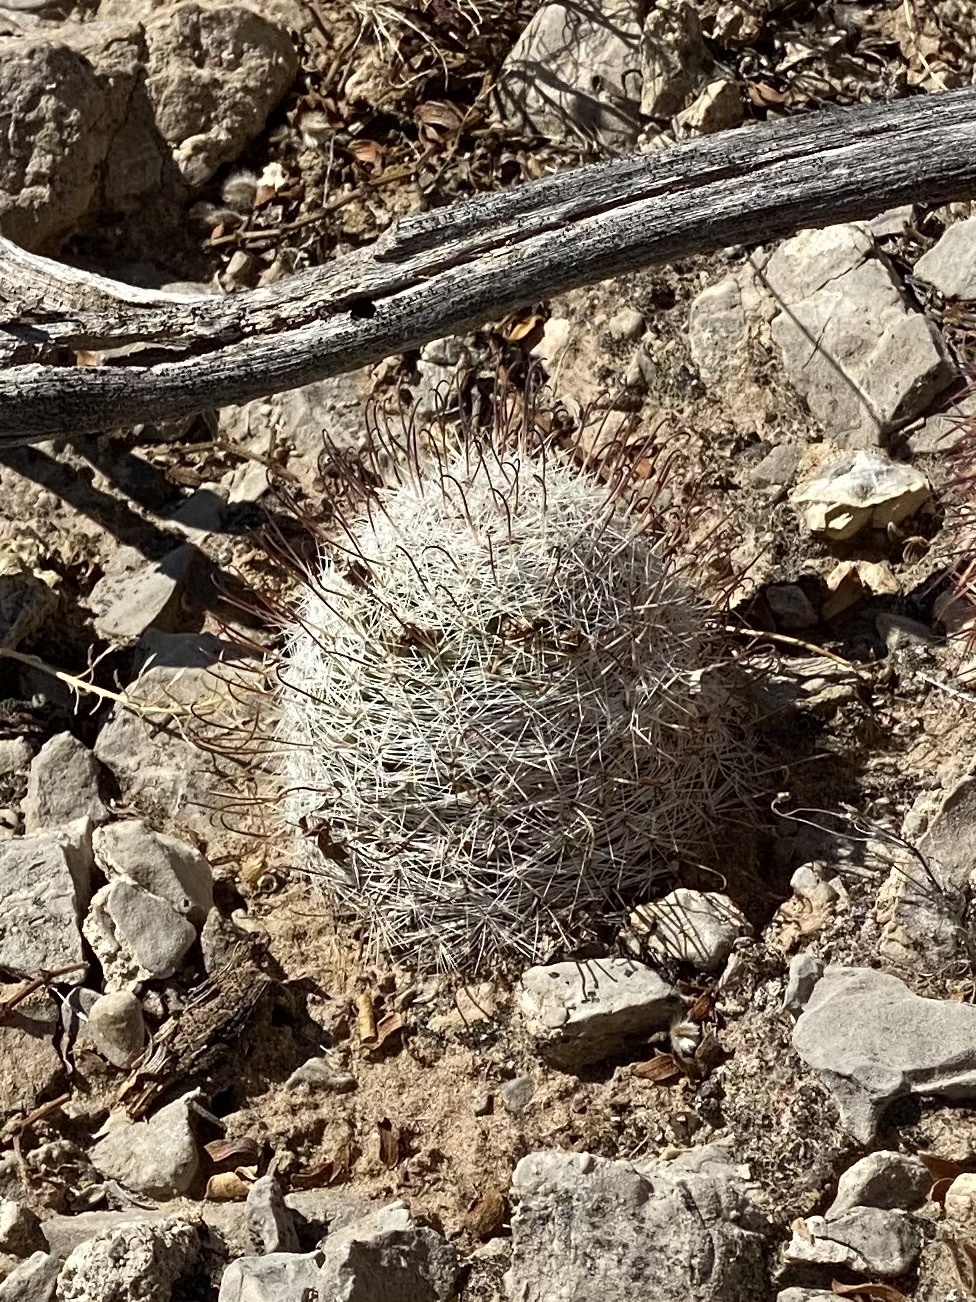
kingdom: Plantae
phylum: Tracheophyta
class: Magnoliopsida
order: Caryophyllales
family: Cactaceae
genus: Cochemiea
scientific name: Cochemiea grahamii
